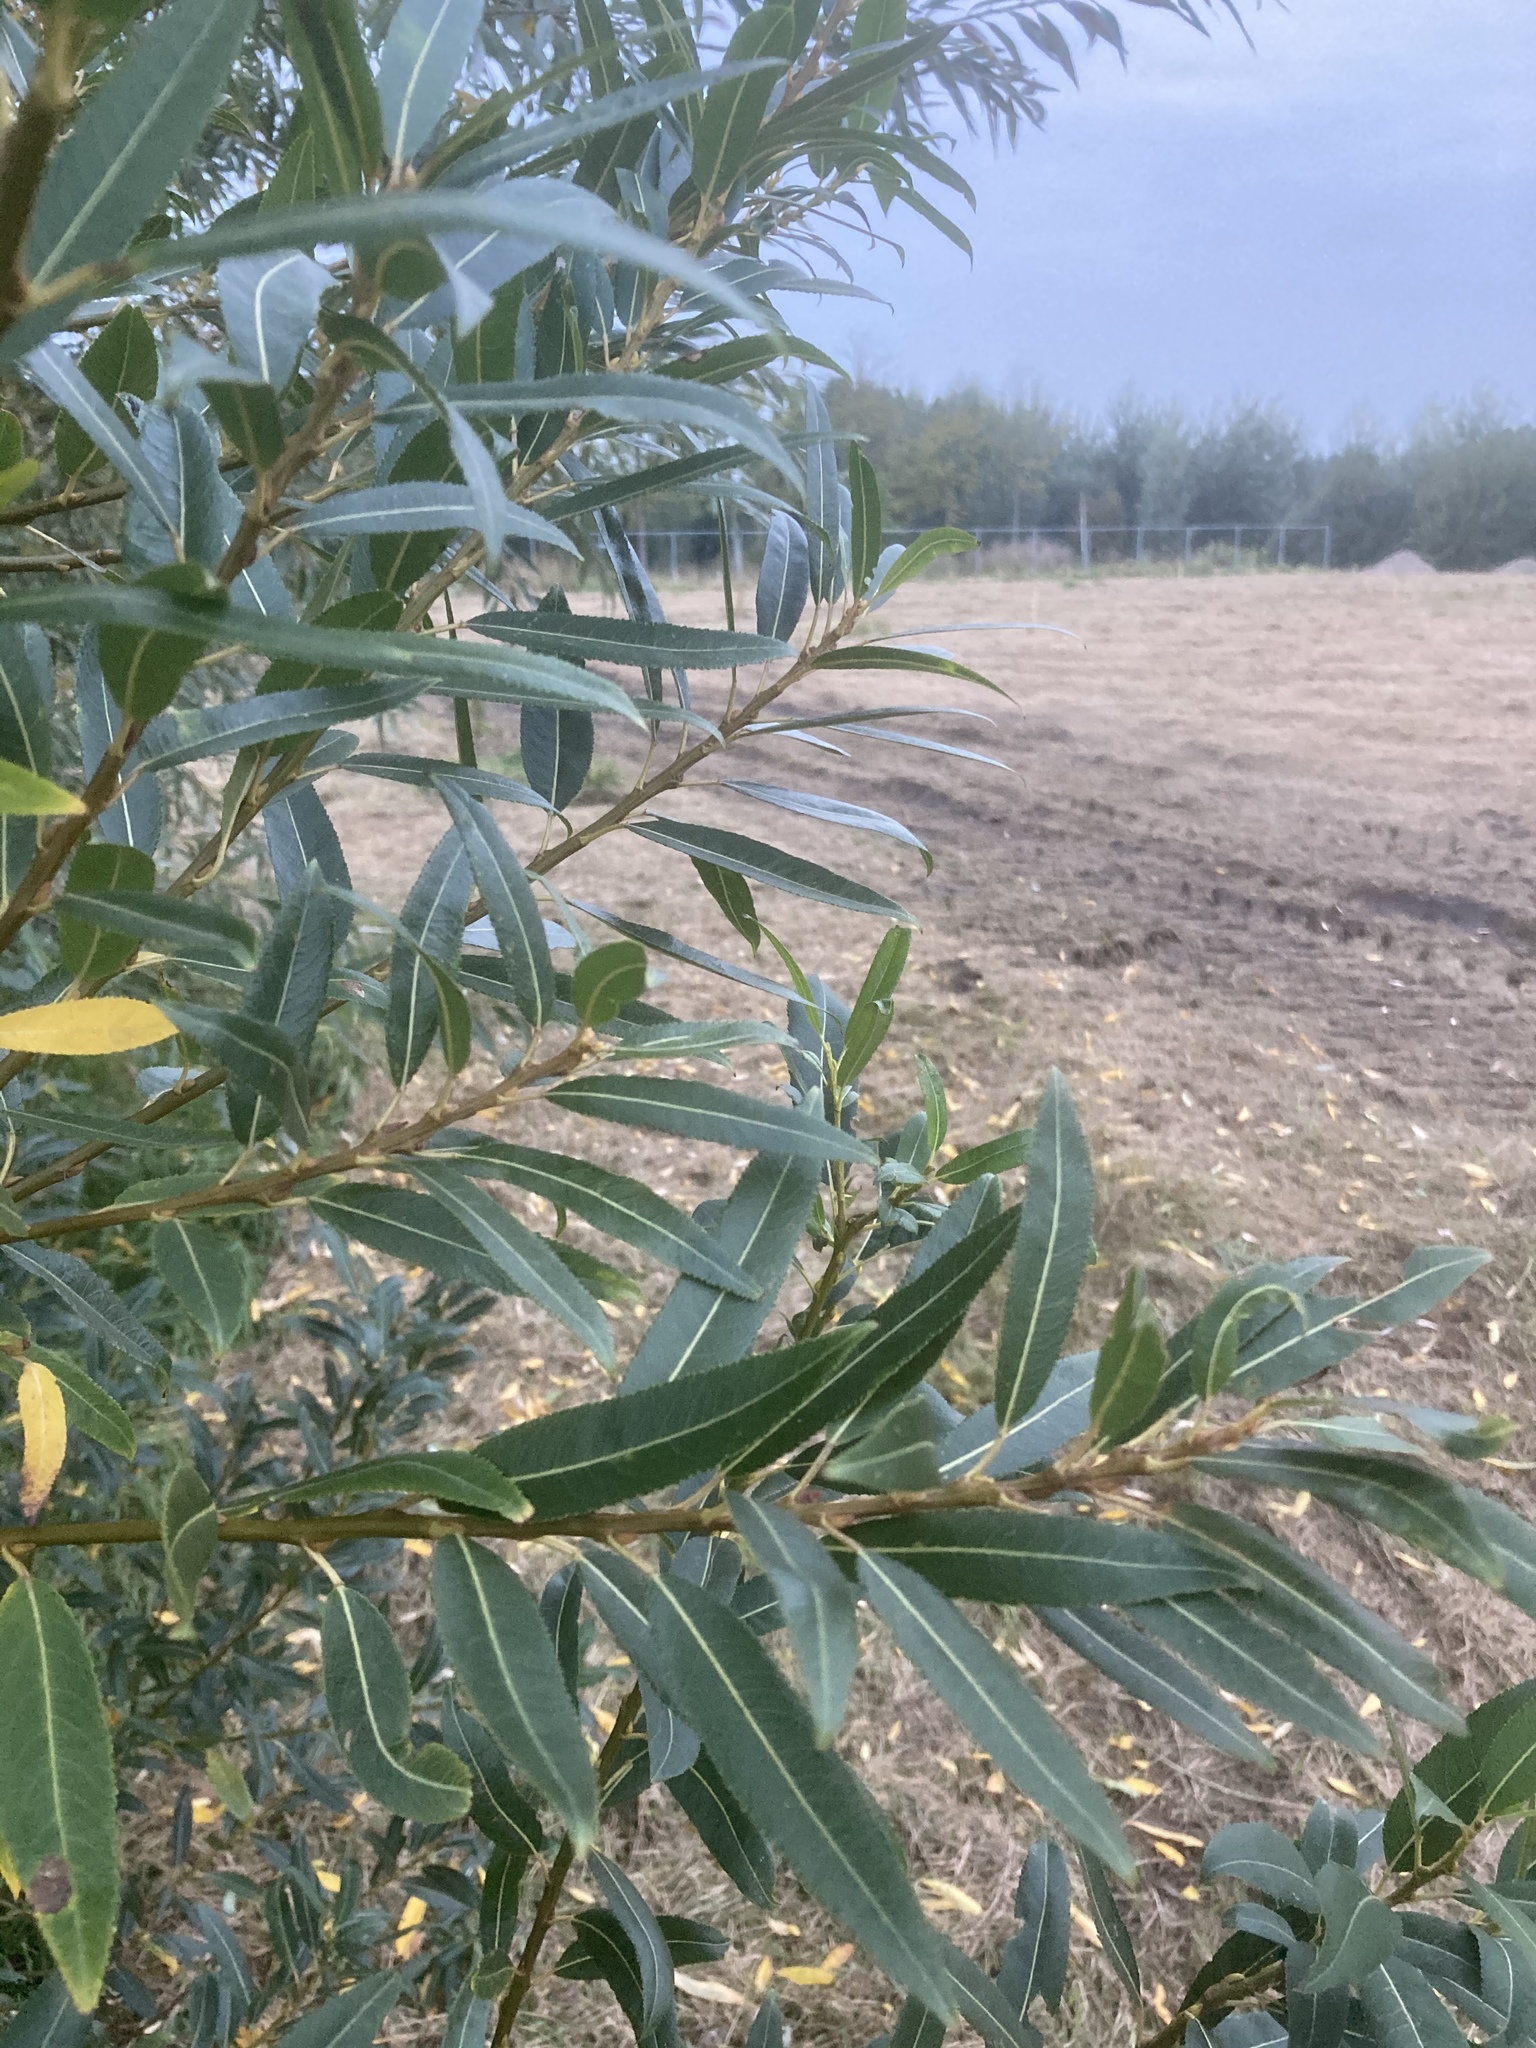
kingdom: Plantae
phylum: Tracheophyta
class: Magnoliopsida
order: Malpighiales
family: Salicaceae
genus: Salix
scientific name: Salix triandra
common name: Almond willow
